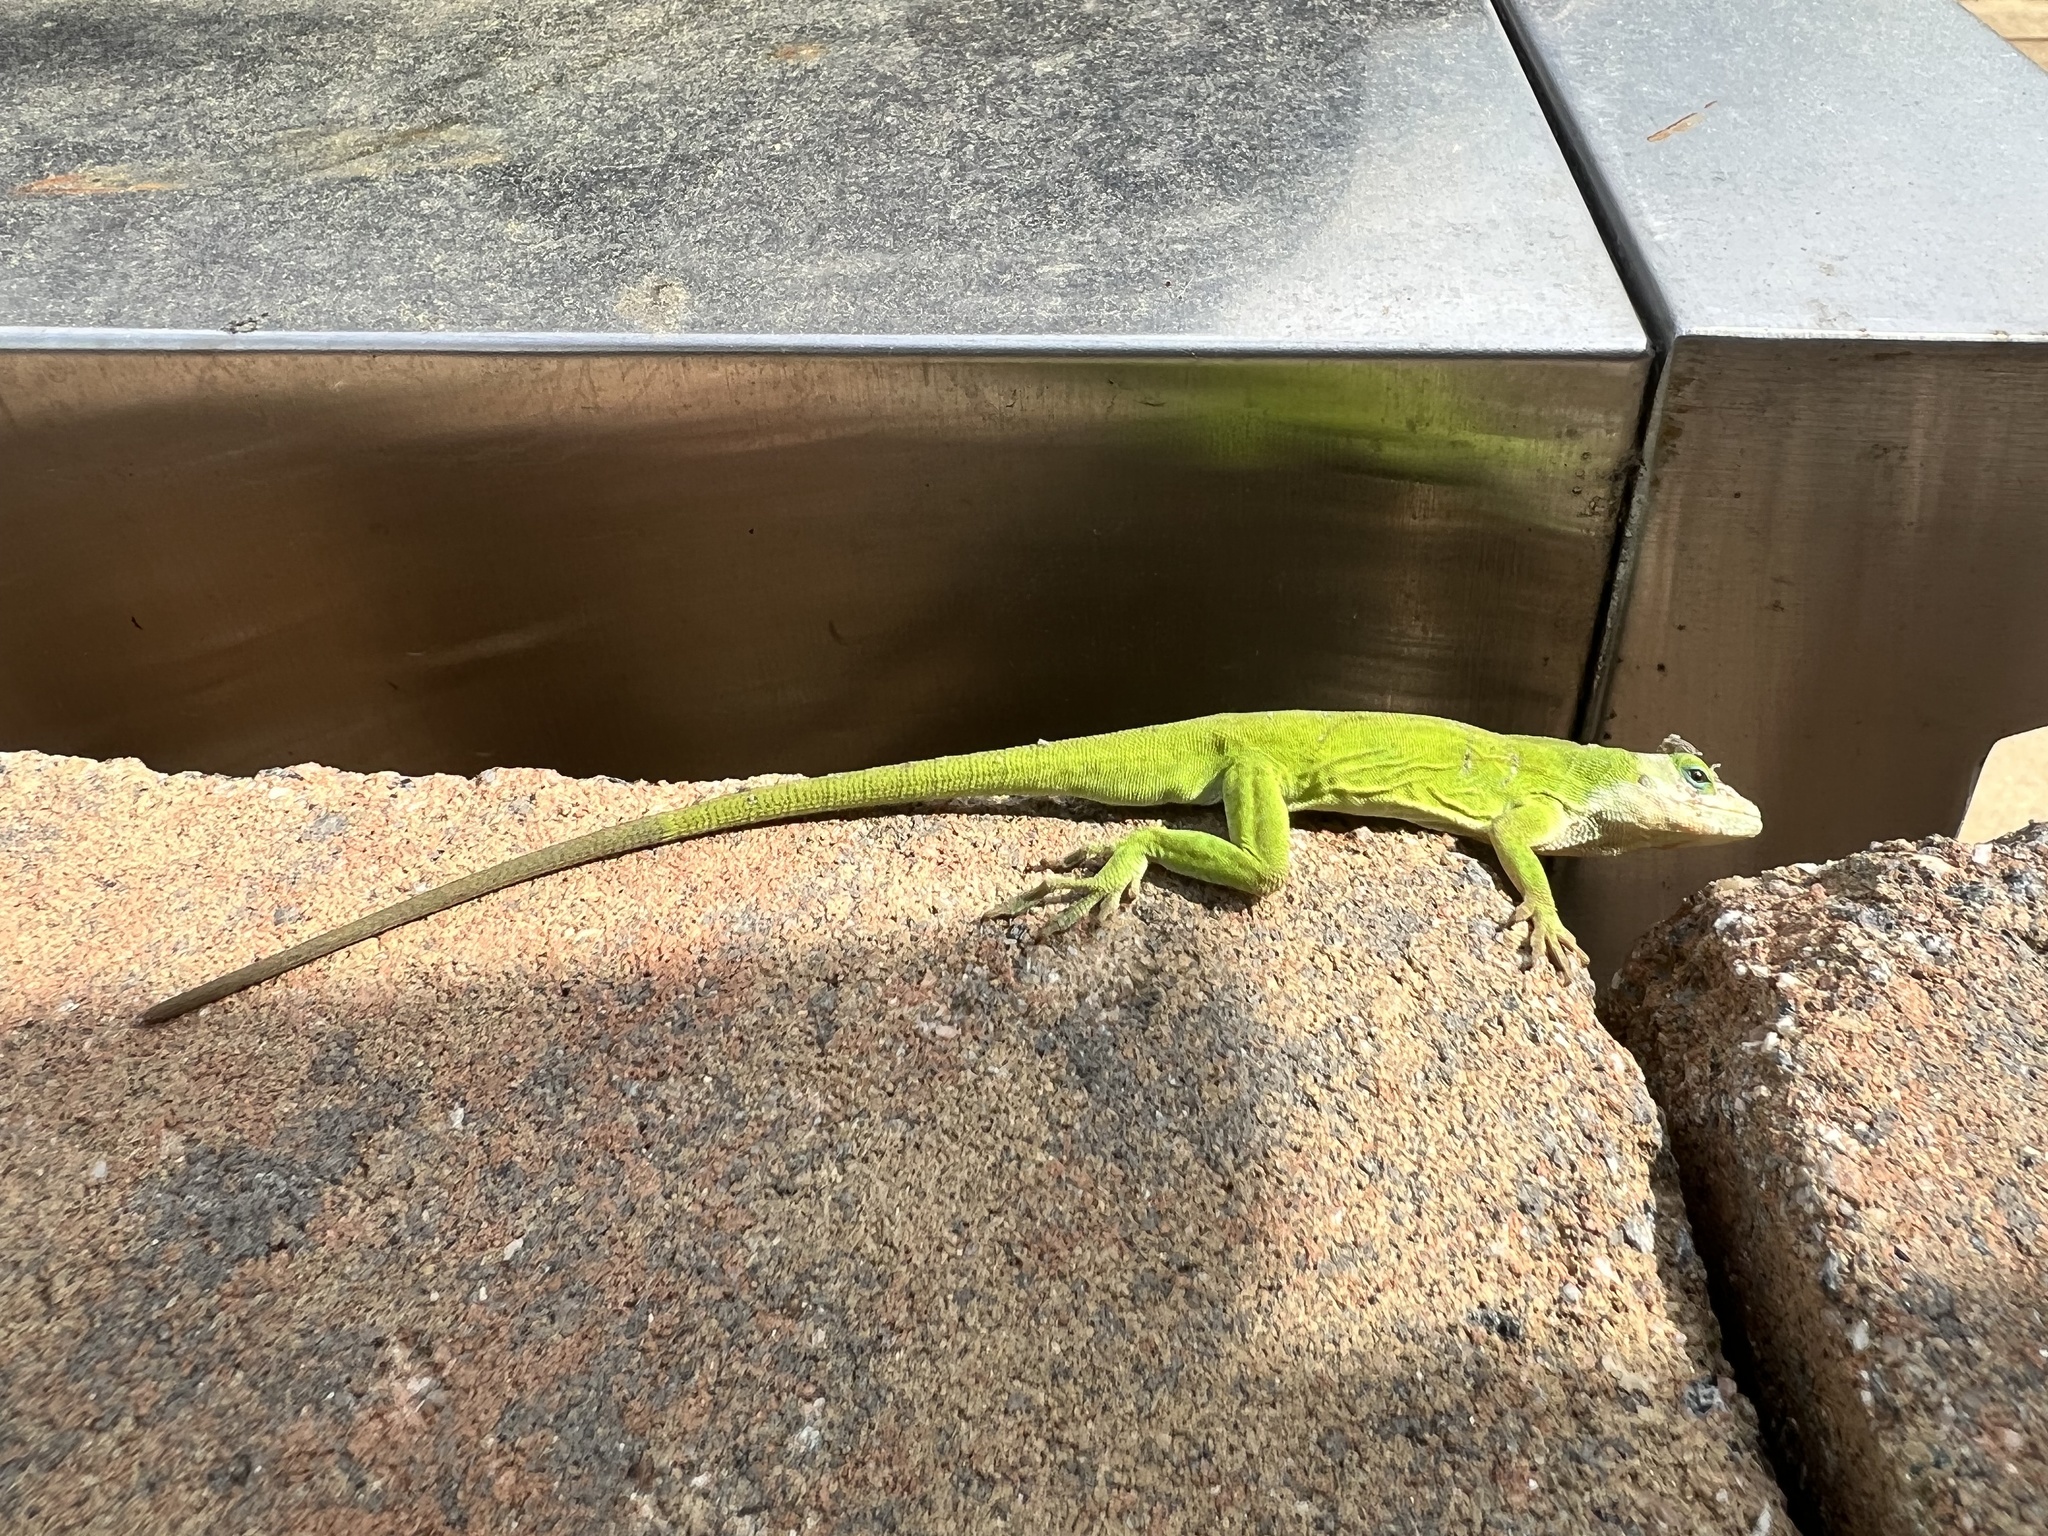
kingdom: Animalia
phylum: Chordata
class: Squamata
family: Dactyloidae
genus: Anolis
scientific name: Anolis carolinensis
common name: Green anole
